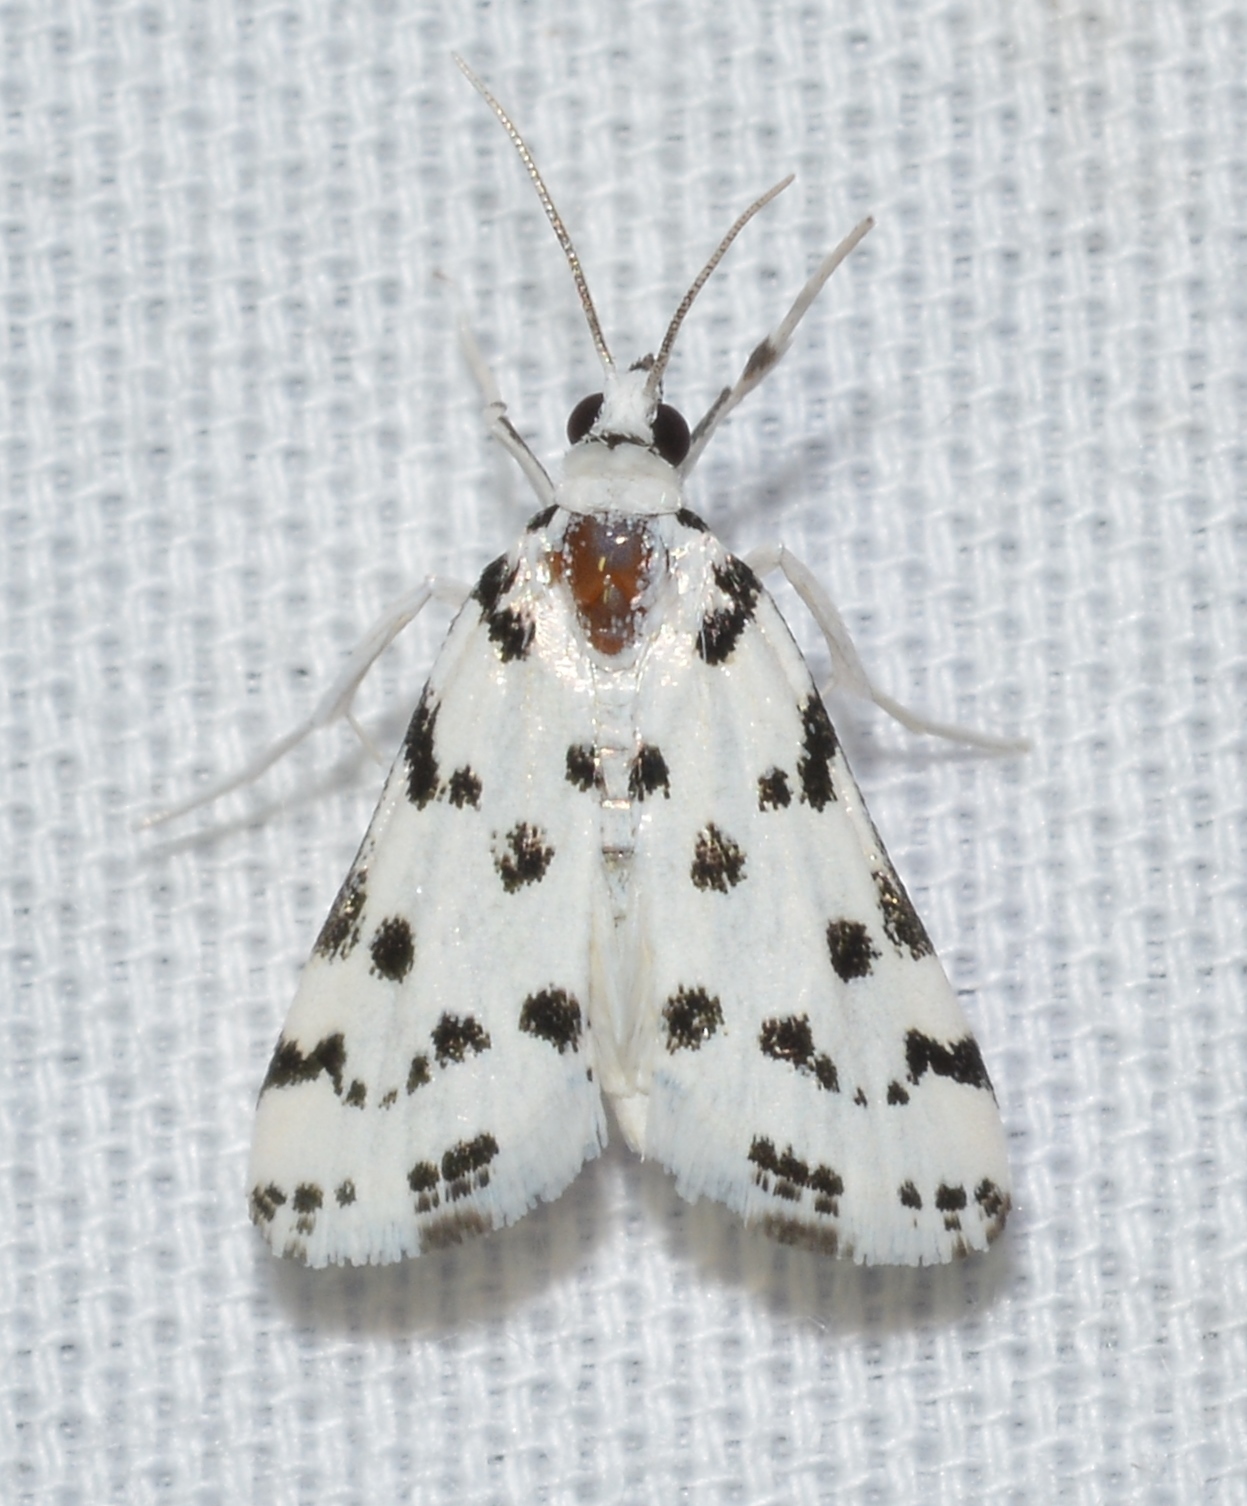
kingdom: Animalia
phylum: Arthropoda
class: Insecta
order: Lepidoptera
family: Crambidae
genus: Eustixia
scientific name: Eustixia pupula
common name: American cabbage pearl
